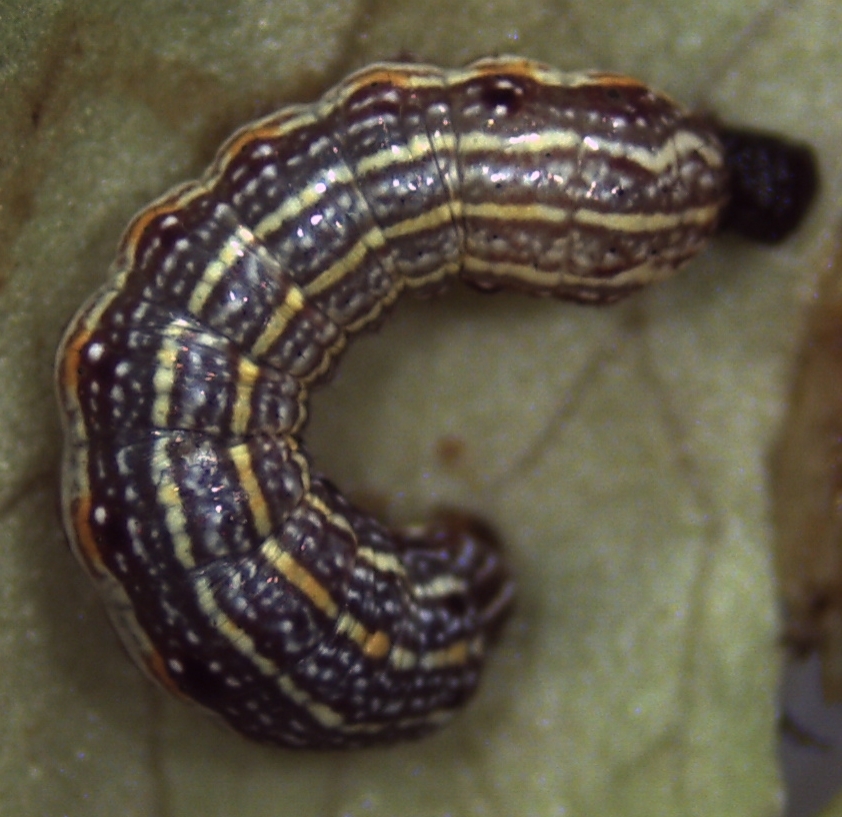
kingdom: Animalia
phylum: Arthropoda
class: Insecta
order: Lepidoptera
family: Noctuidae
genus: Spodoptera
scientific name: Spodoptera picta
